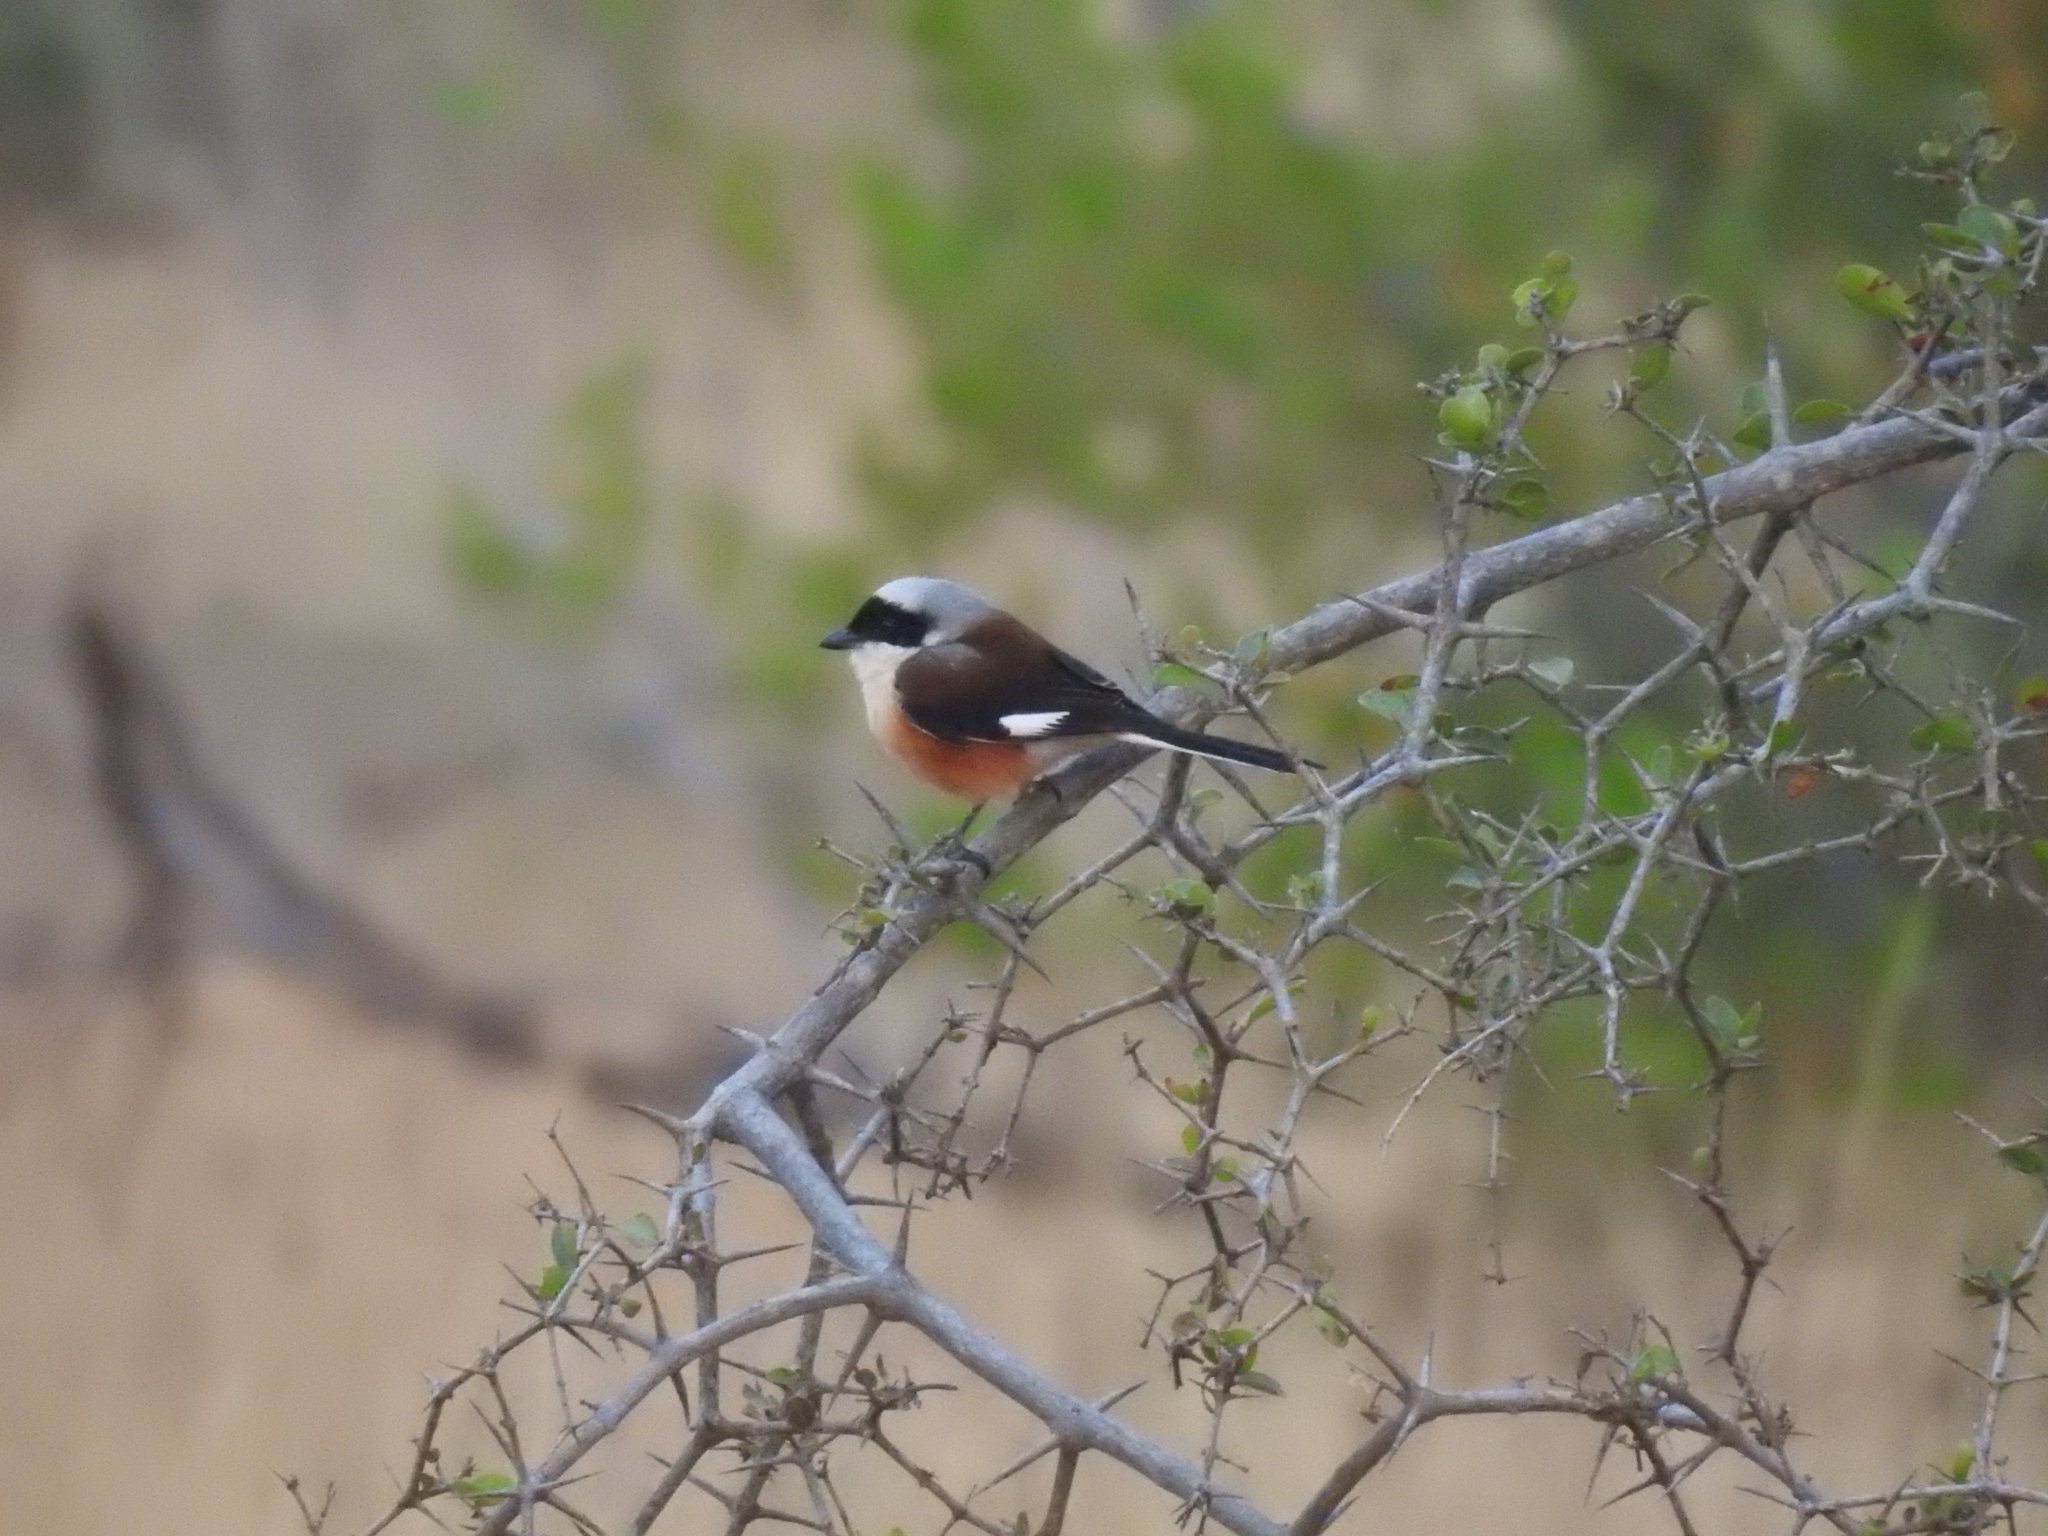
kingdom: Animalia
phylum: Chordata
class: Aves
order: Passeriformes
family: Laniidae
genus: Lanius
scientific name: Lanius vittatus
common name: Bay-backed shrike
